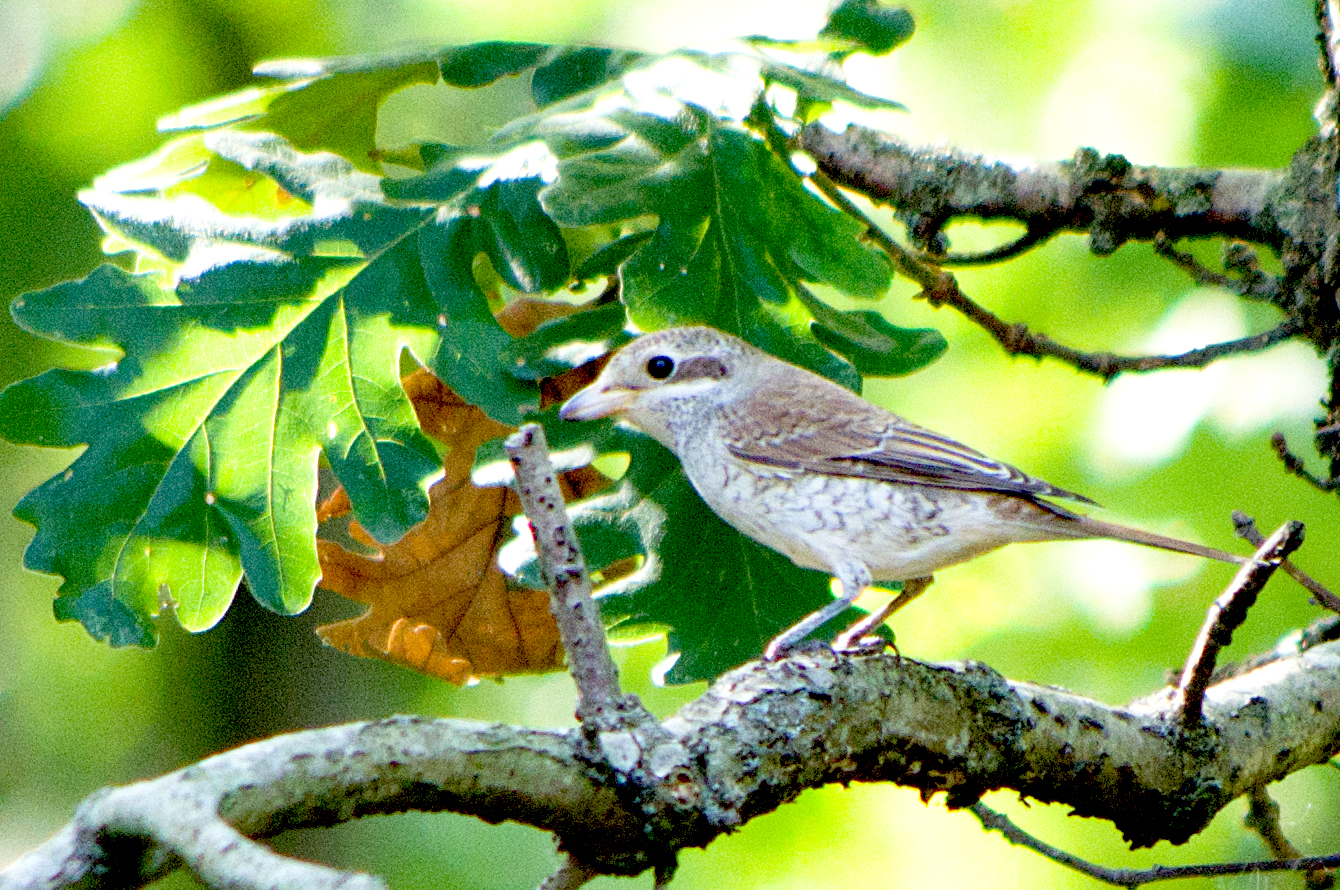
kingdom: Animalia
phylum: Chordata
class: Aves
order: Passeriformes
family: Laniidae
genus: Lanius
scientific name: Lanius collurio
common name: Red-backed shrike
